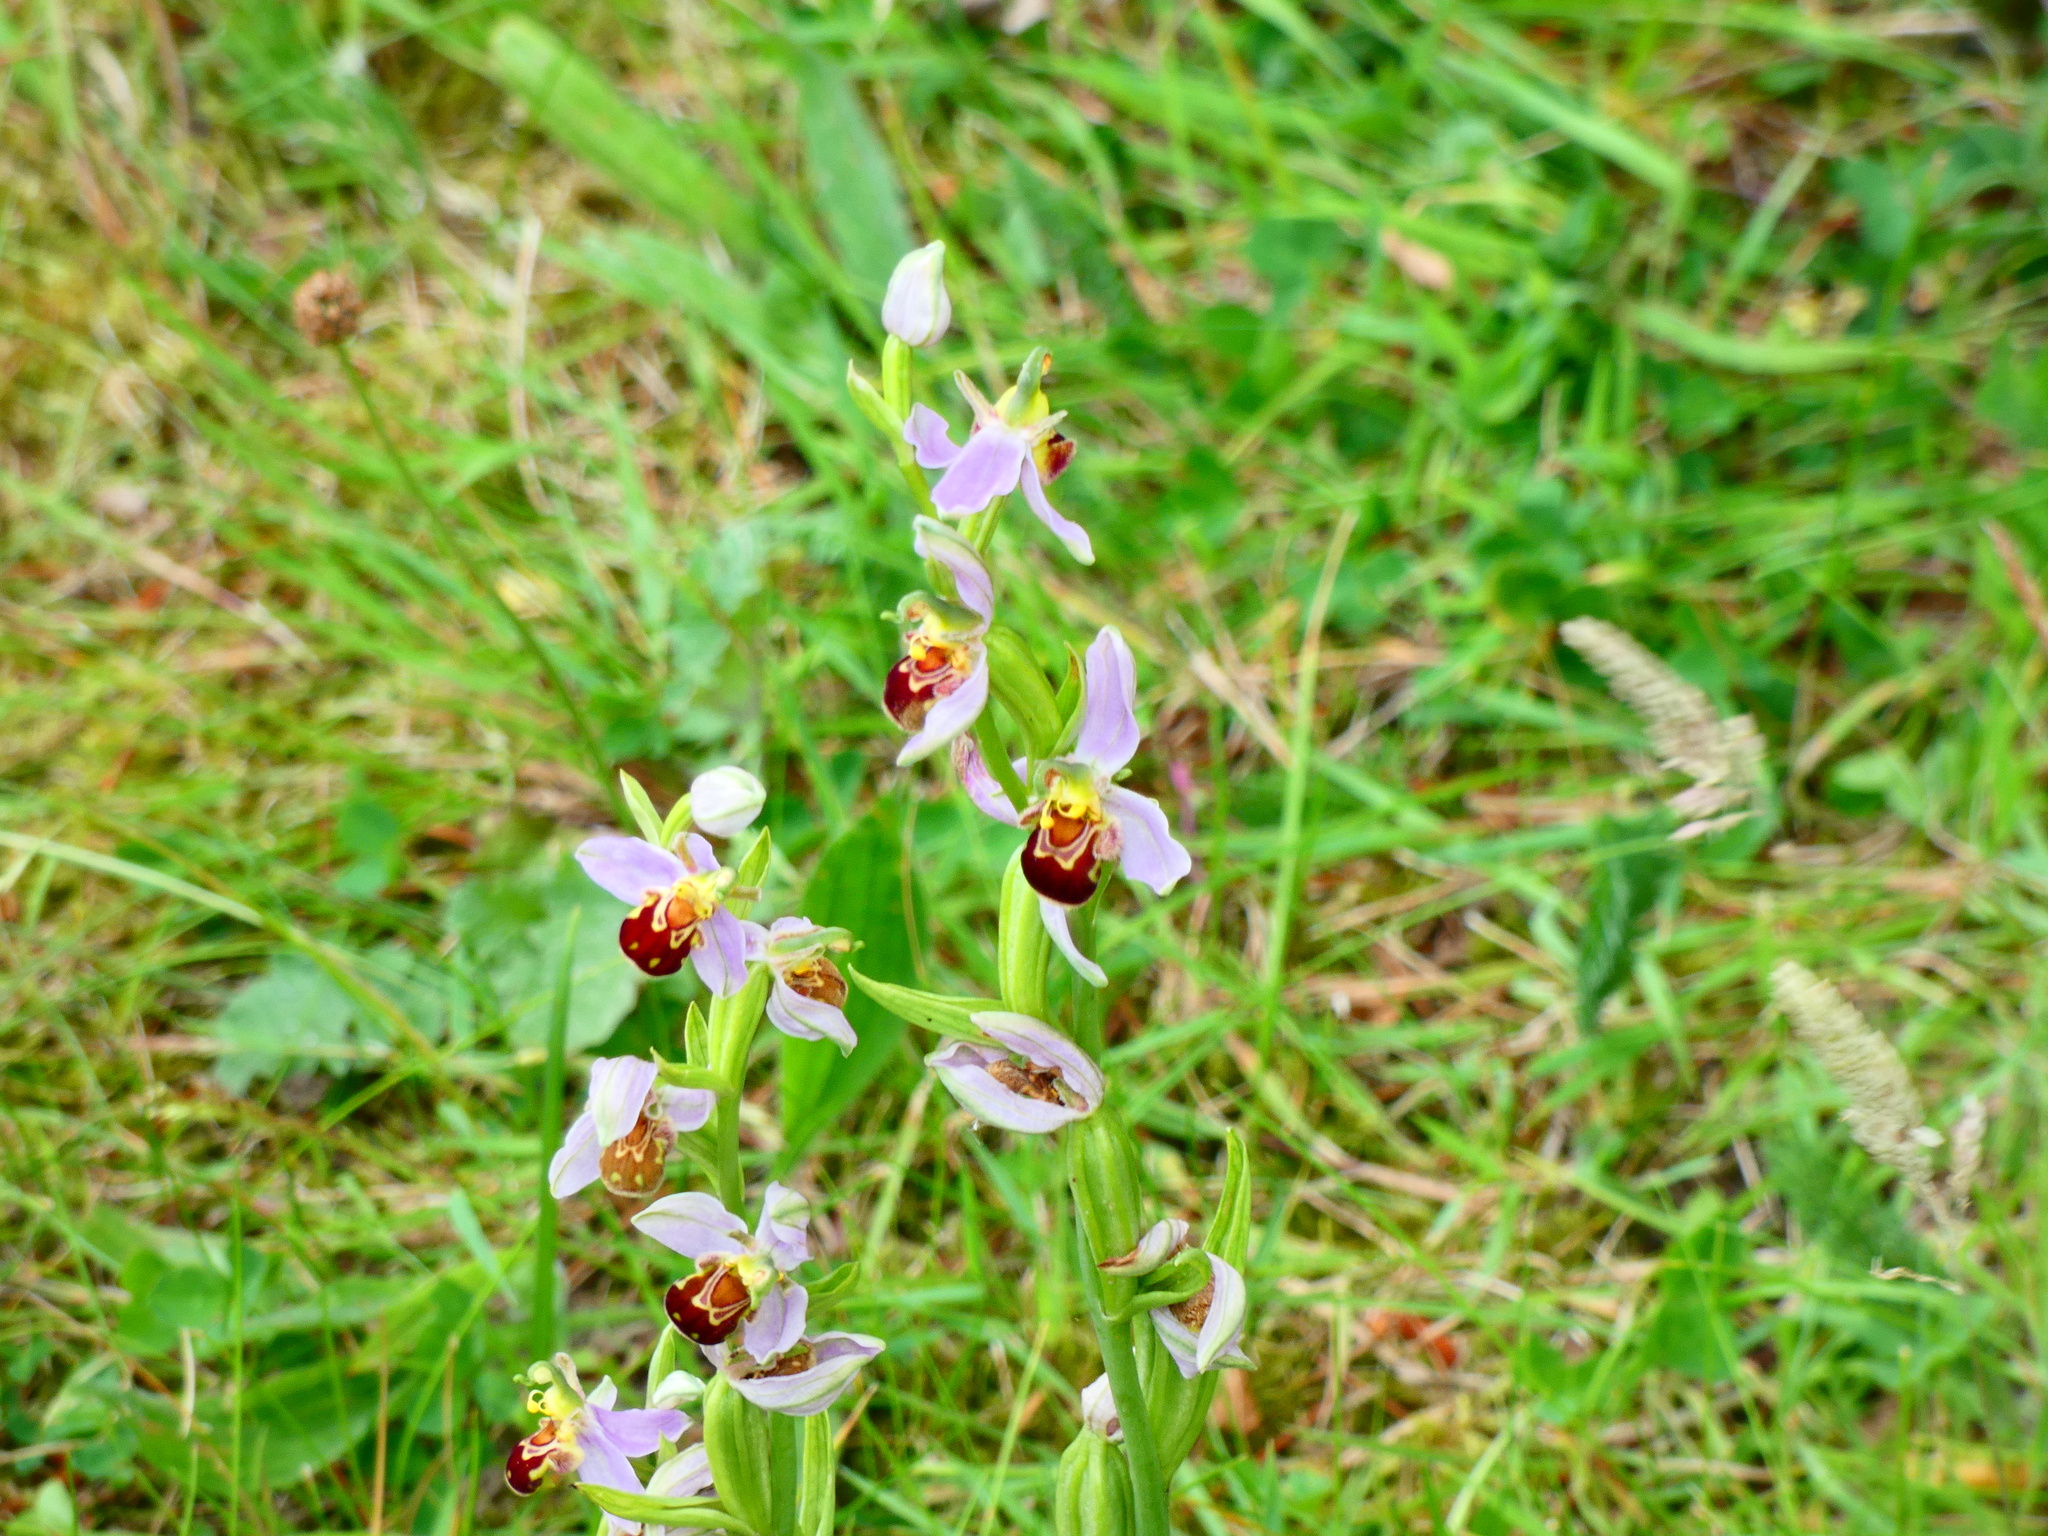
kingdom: Plantae
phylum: Tracheophyta
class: Liliopsida
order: Asparagales
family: Orchidaceae
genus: Ophrys
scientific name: Ophrys apifera
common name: Bee orchid
